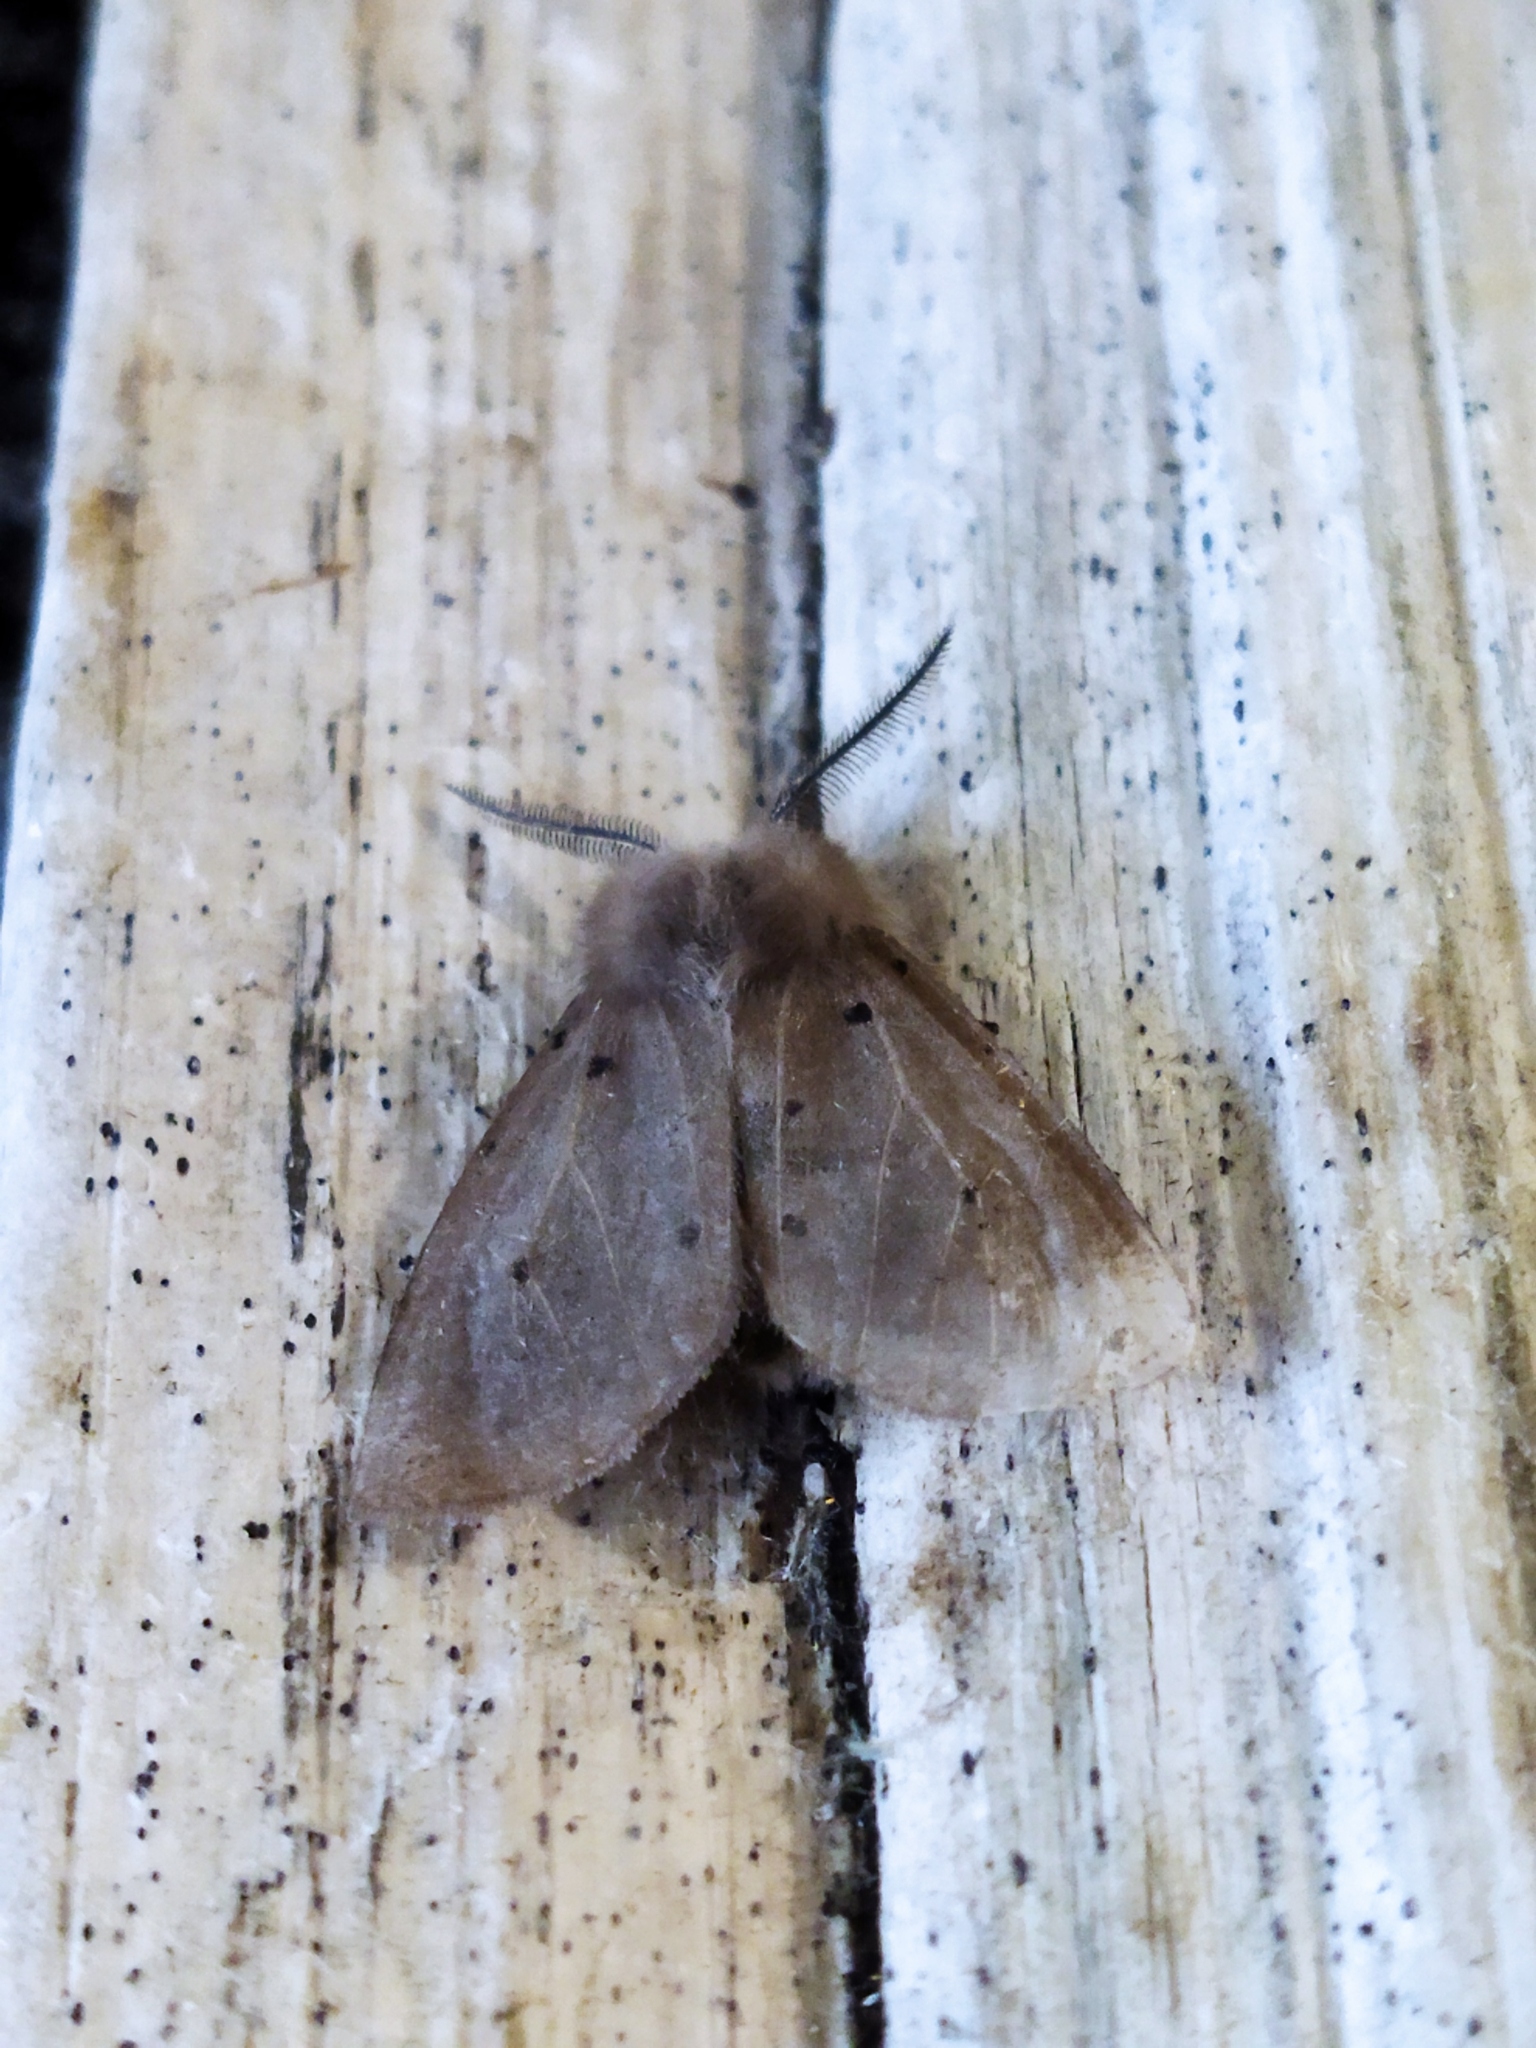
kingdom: Animalia
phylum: Arthropoda
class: Insecta
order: Lepidoptera
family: Erebidae
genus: Diaphora
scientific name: Diaphora mendica
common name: Muslin moth
